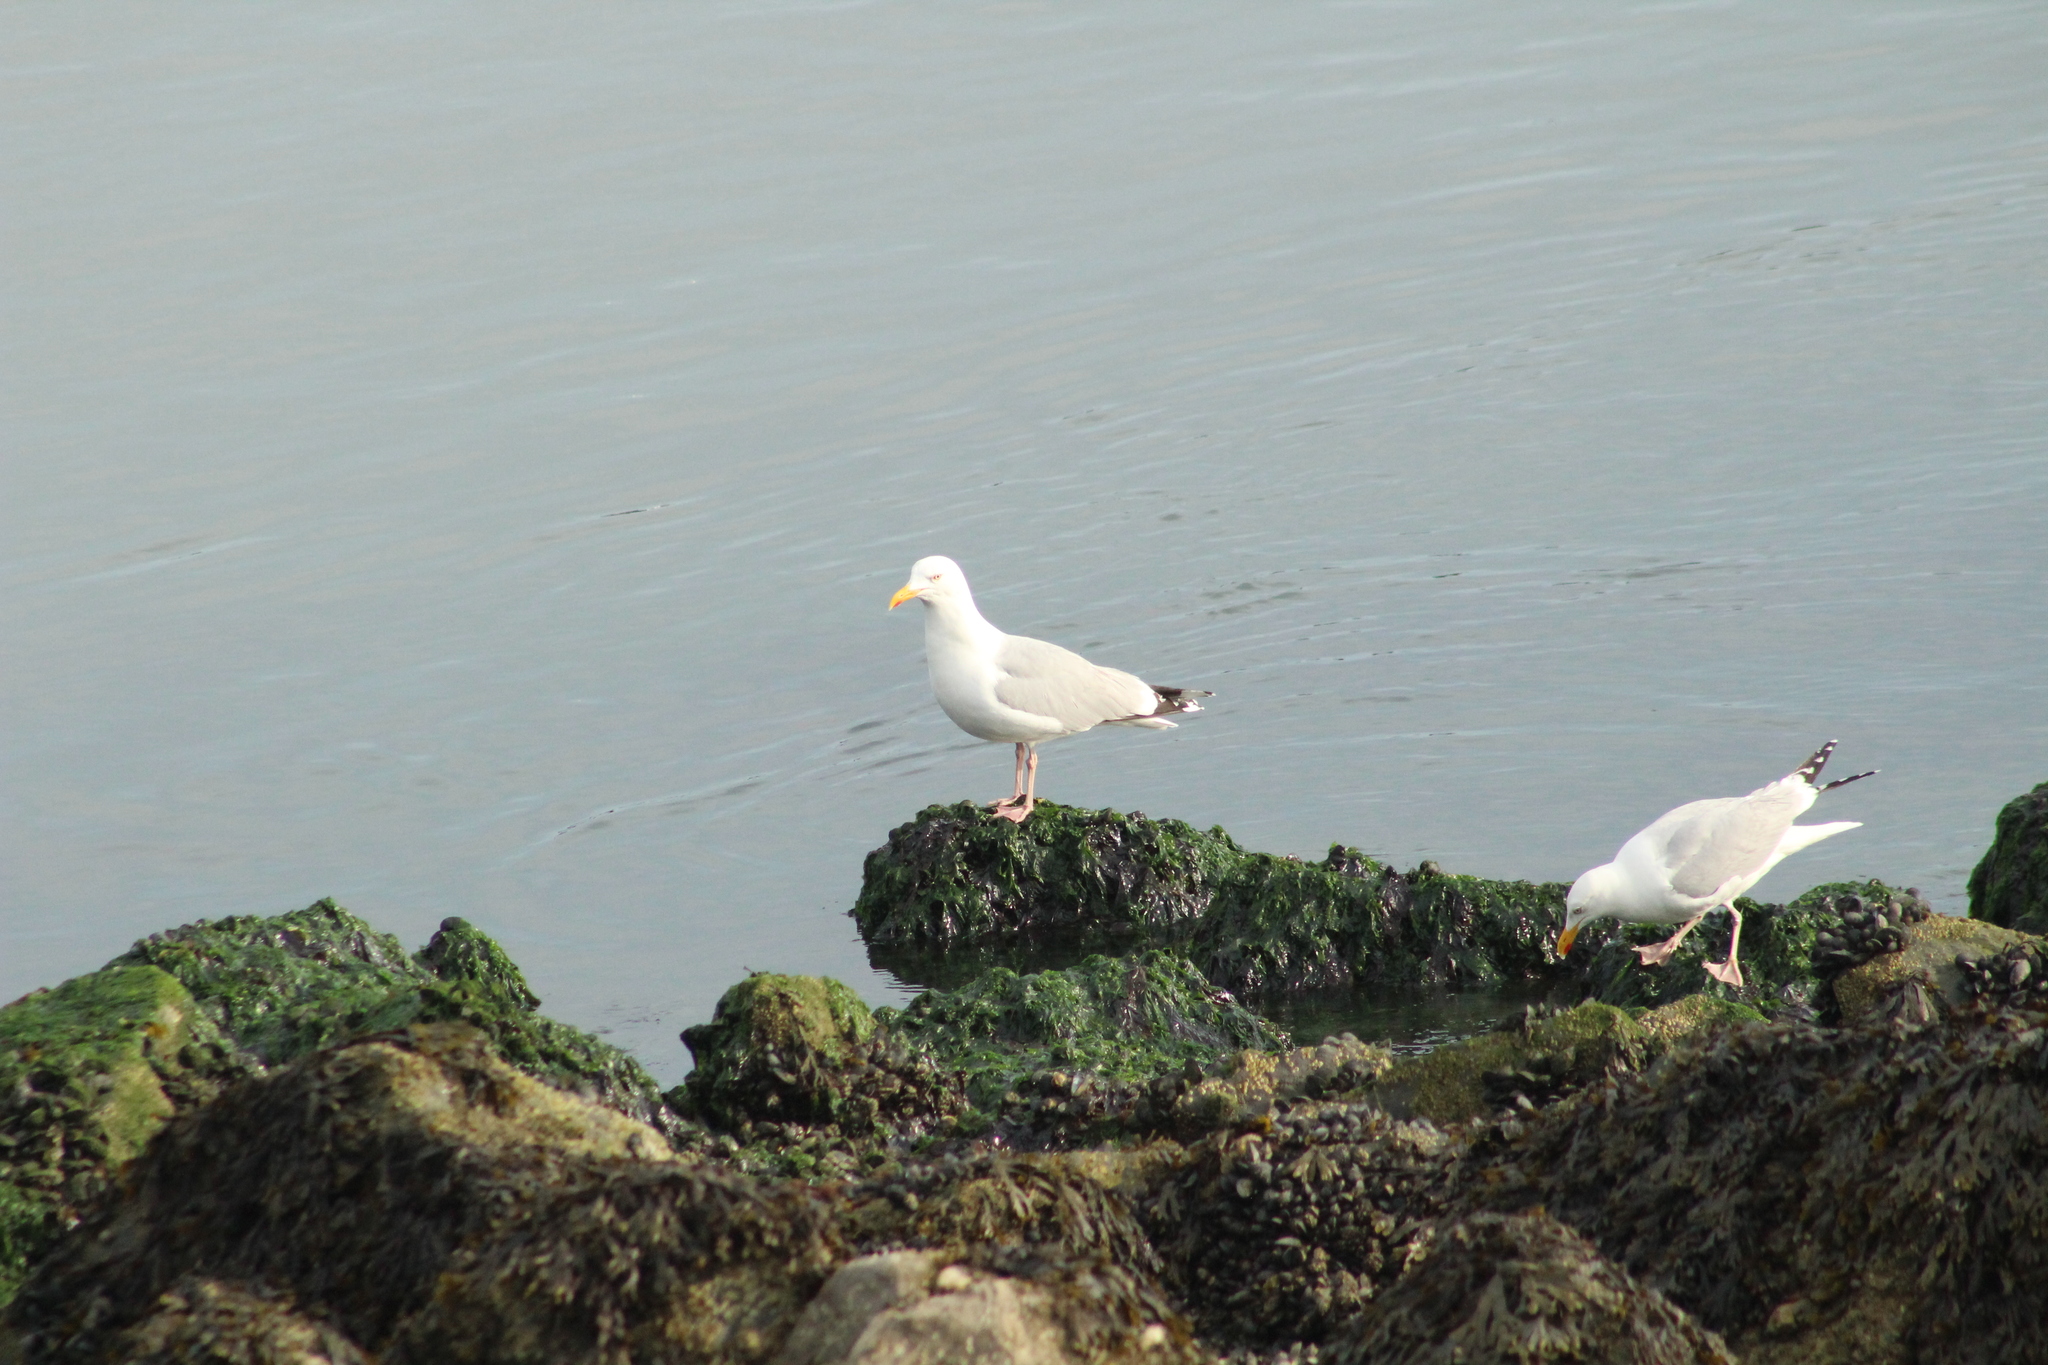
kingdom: Animalia
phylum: Chordata
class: Aves
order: Charadriiformes
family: Laridae
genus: Larus
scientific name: Larus argentatus
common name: Herring gull
